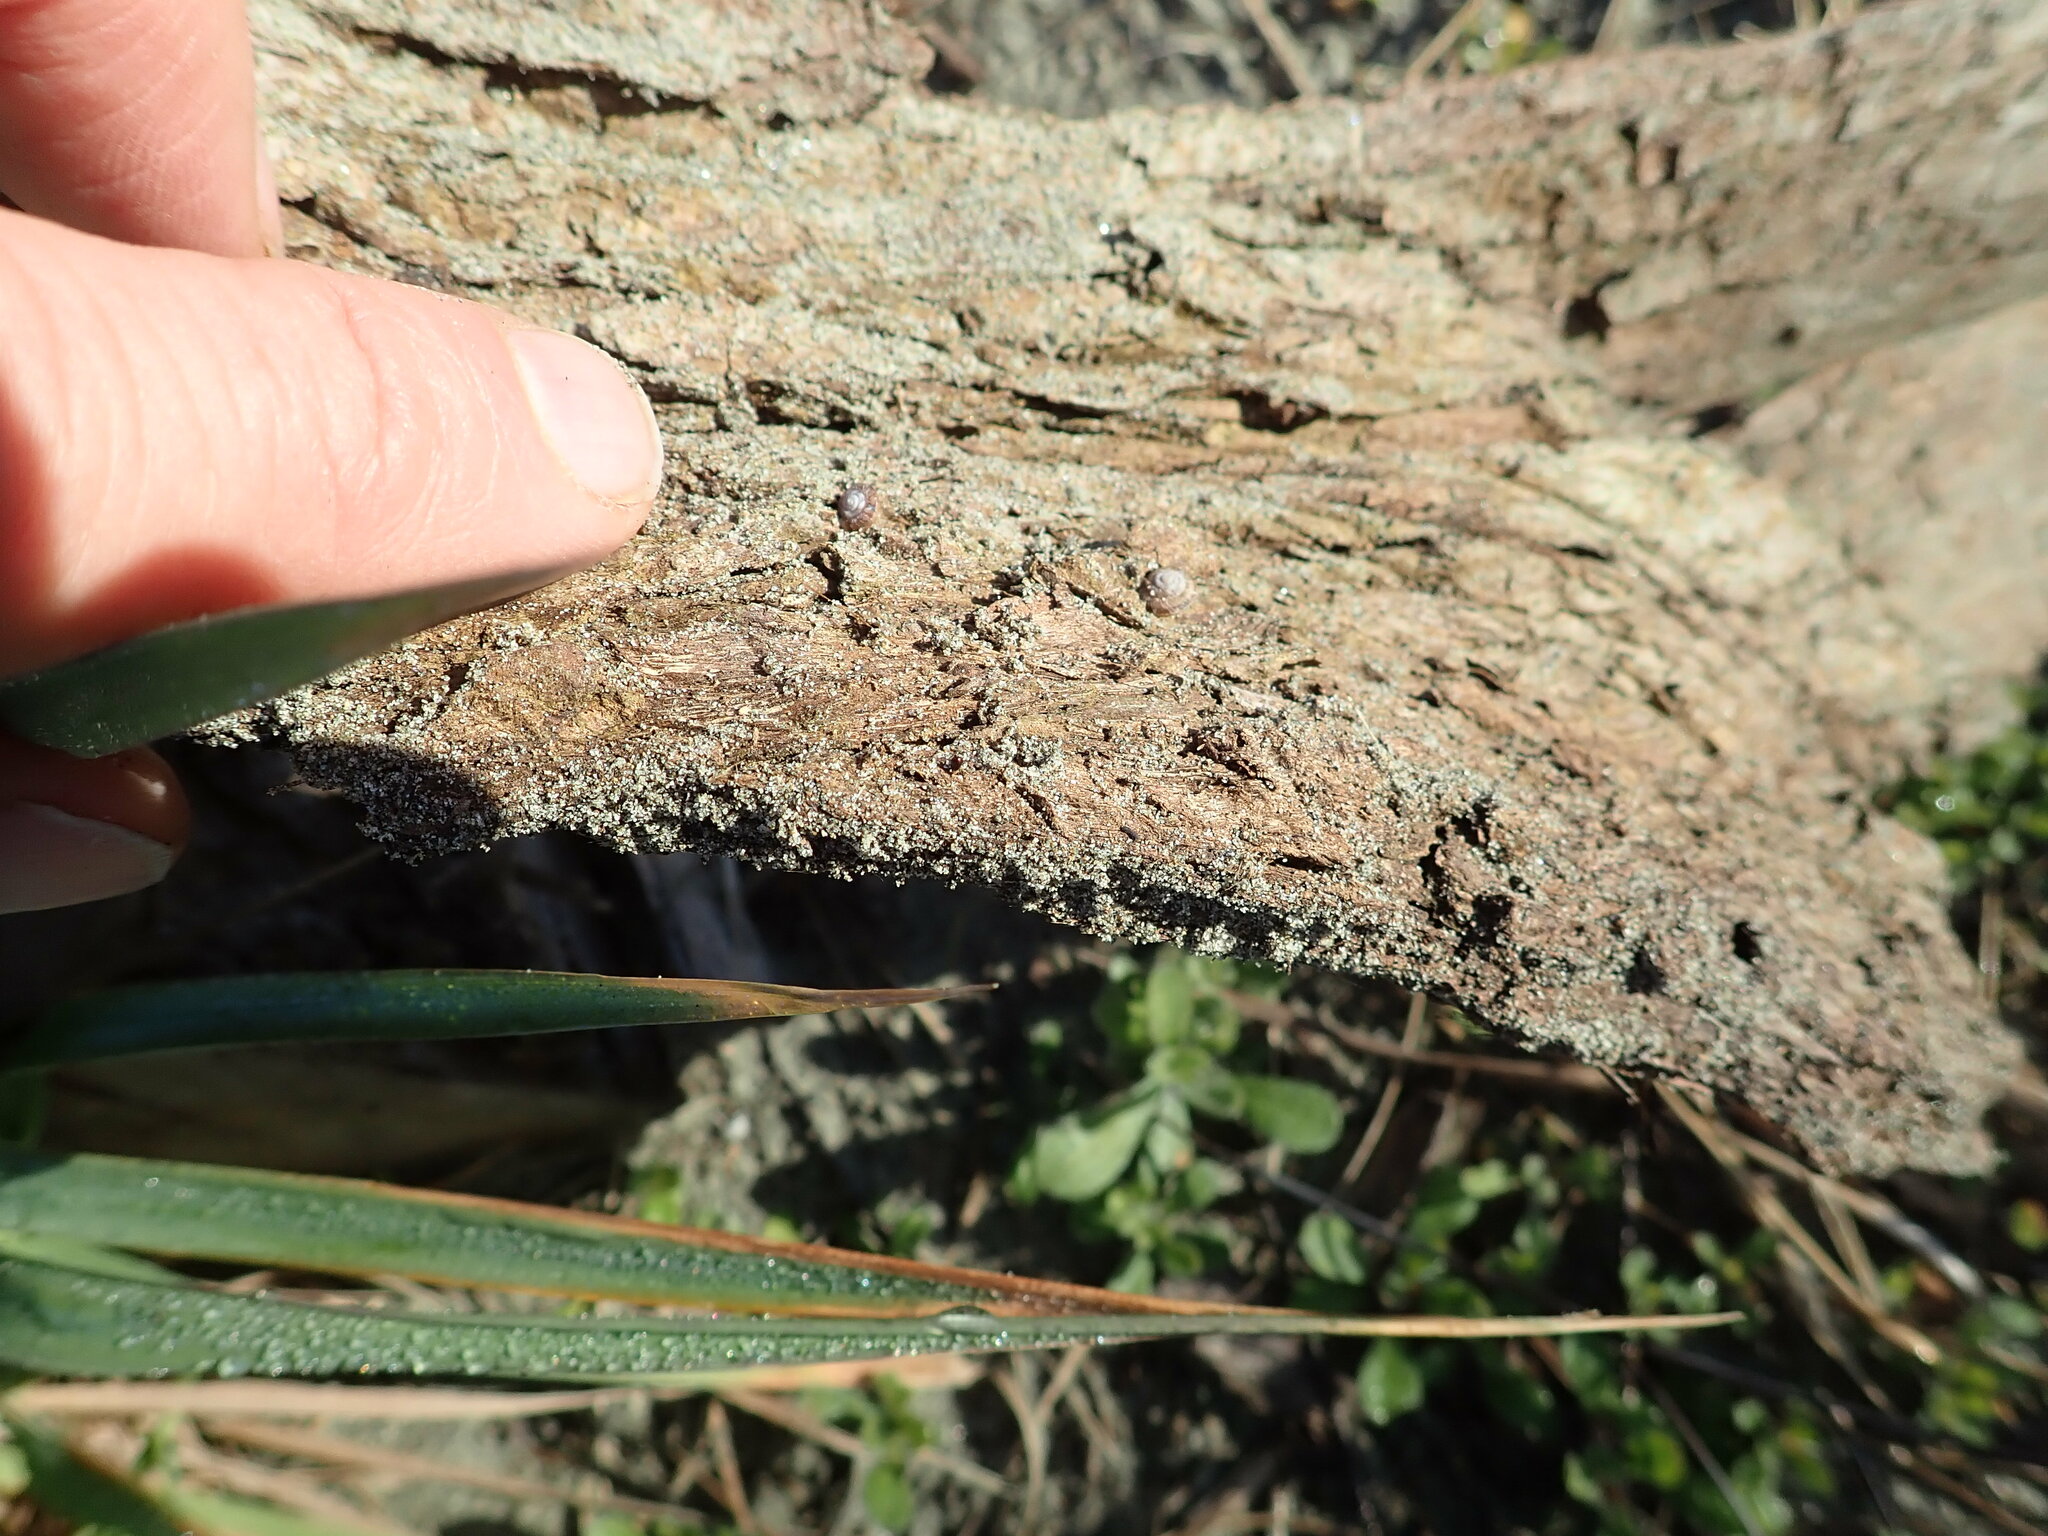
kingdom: Animalia
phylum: Mollusca
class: Gastropoda
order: Stylommatophora
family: Geomitridae
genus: Xeroplexa
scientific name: Xeroplexa intersecta
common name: Wrinkled snail
